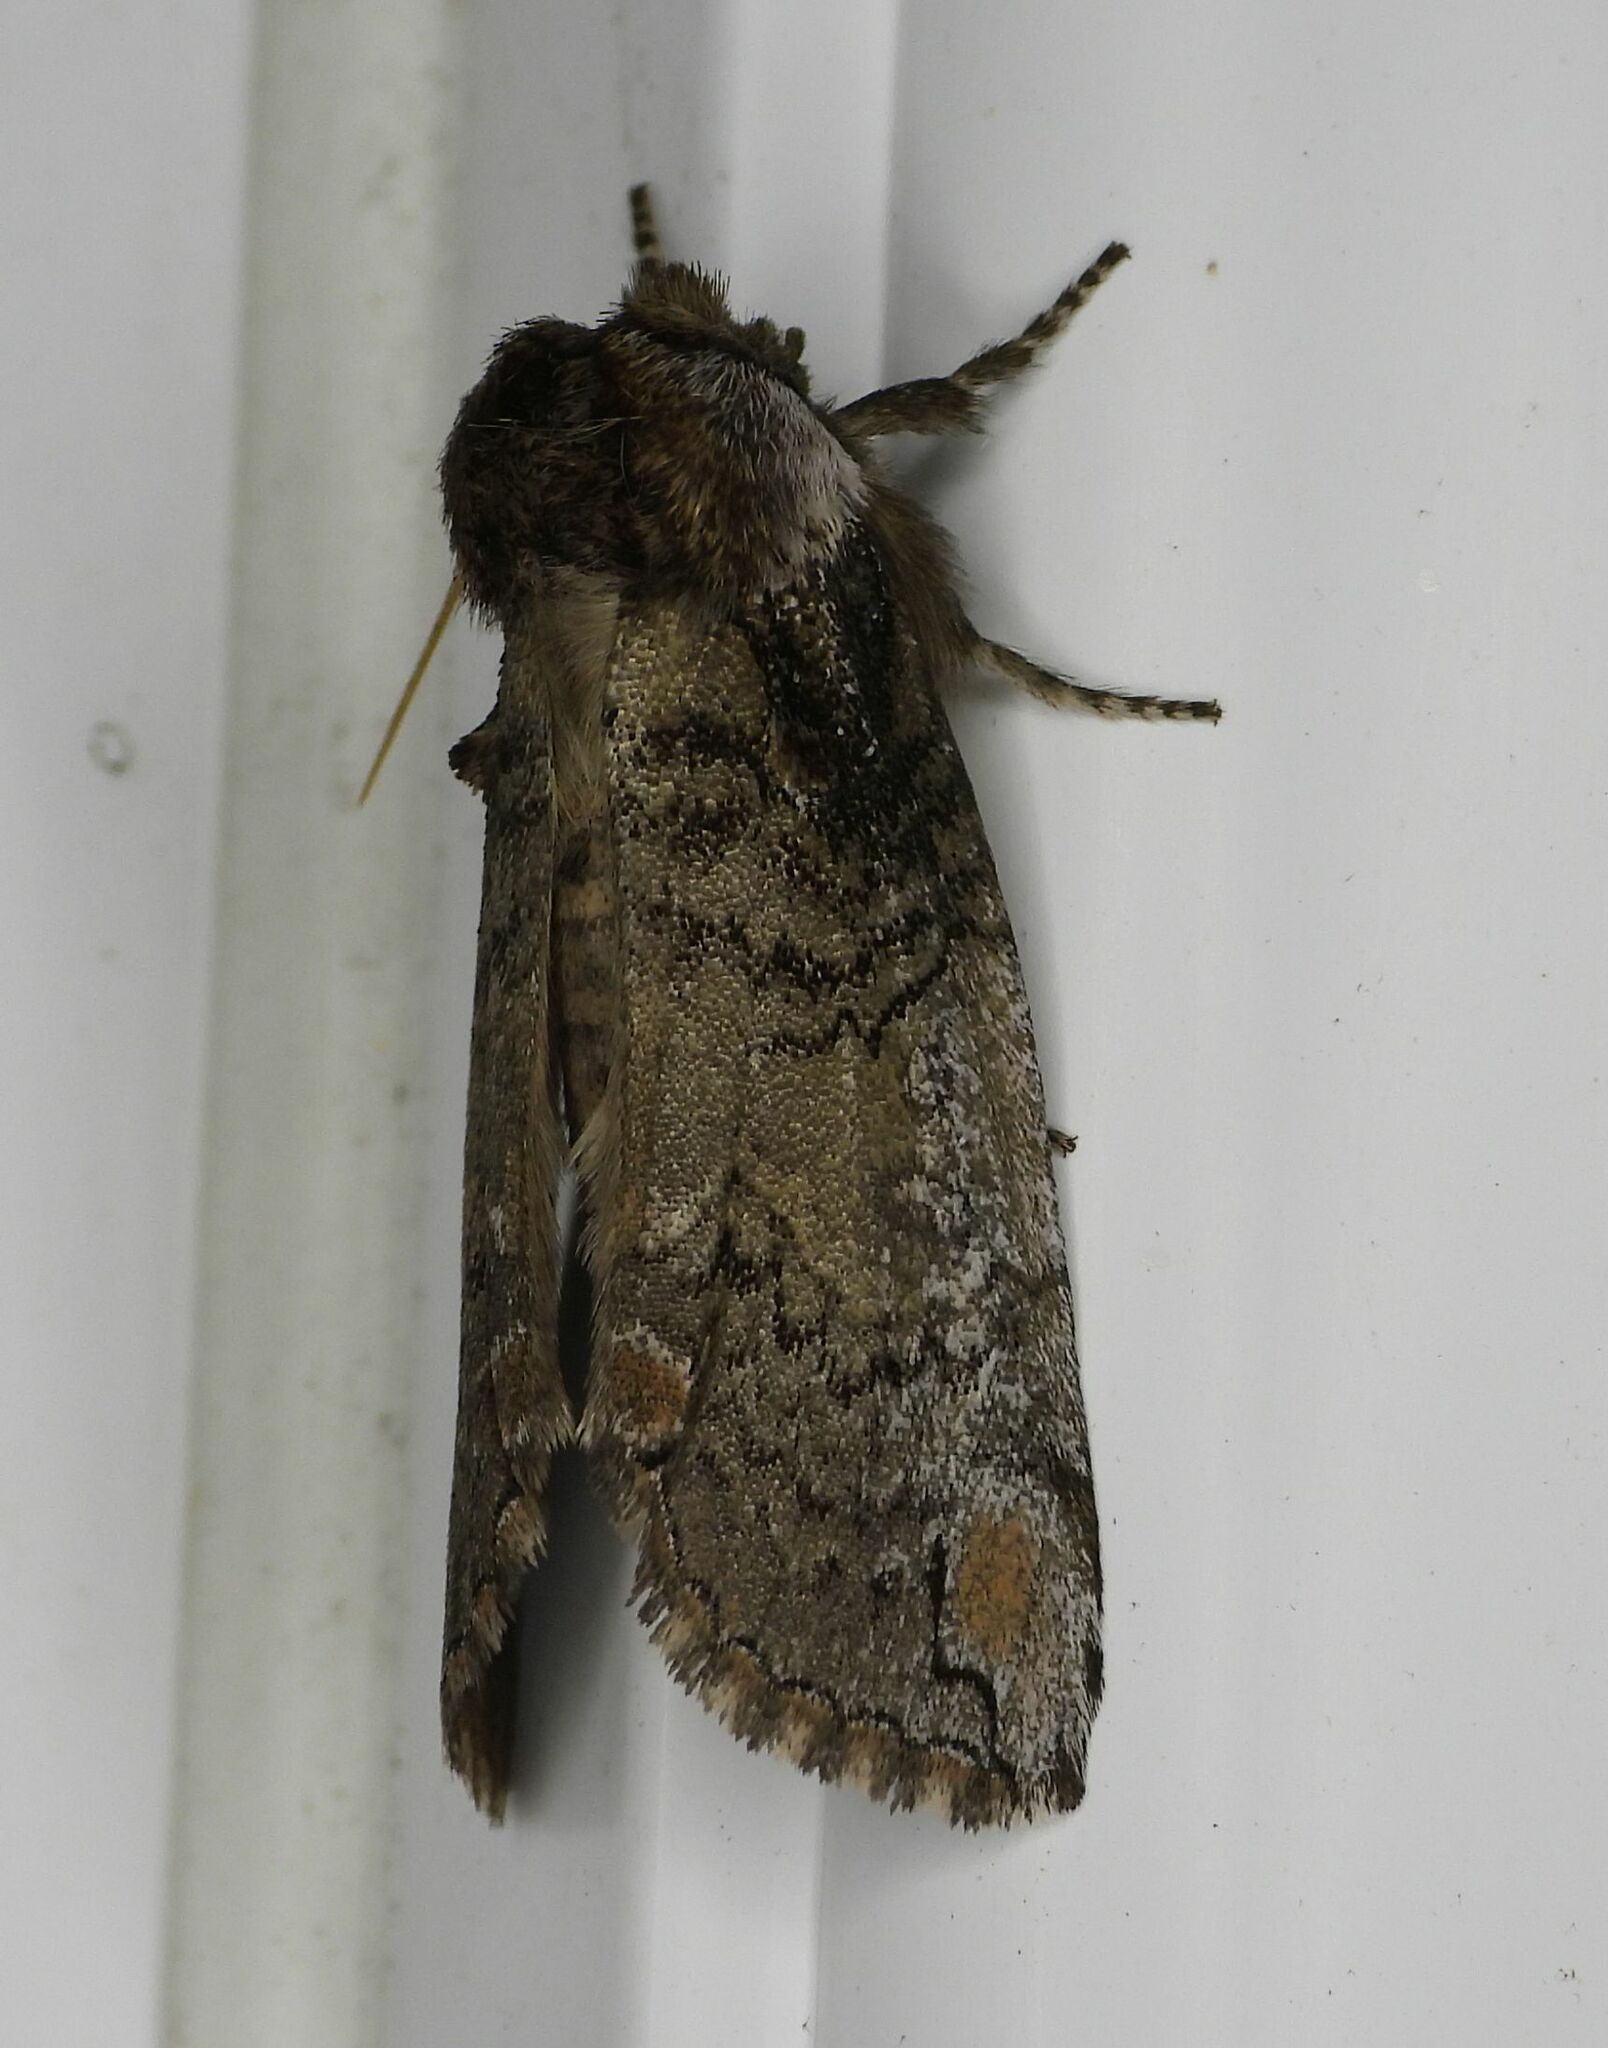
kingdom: Animalia
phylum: Arthropoda
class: Insecta
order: Lepidoptera
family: Drepanidae
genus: Euthyatira
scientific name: Euthyatira pudens
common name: Dogwood thyatirid moth
